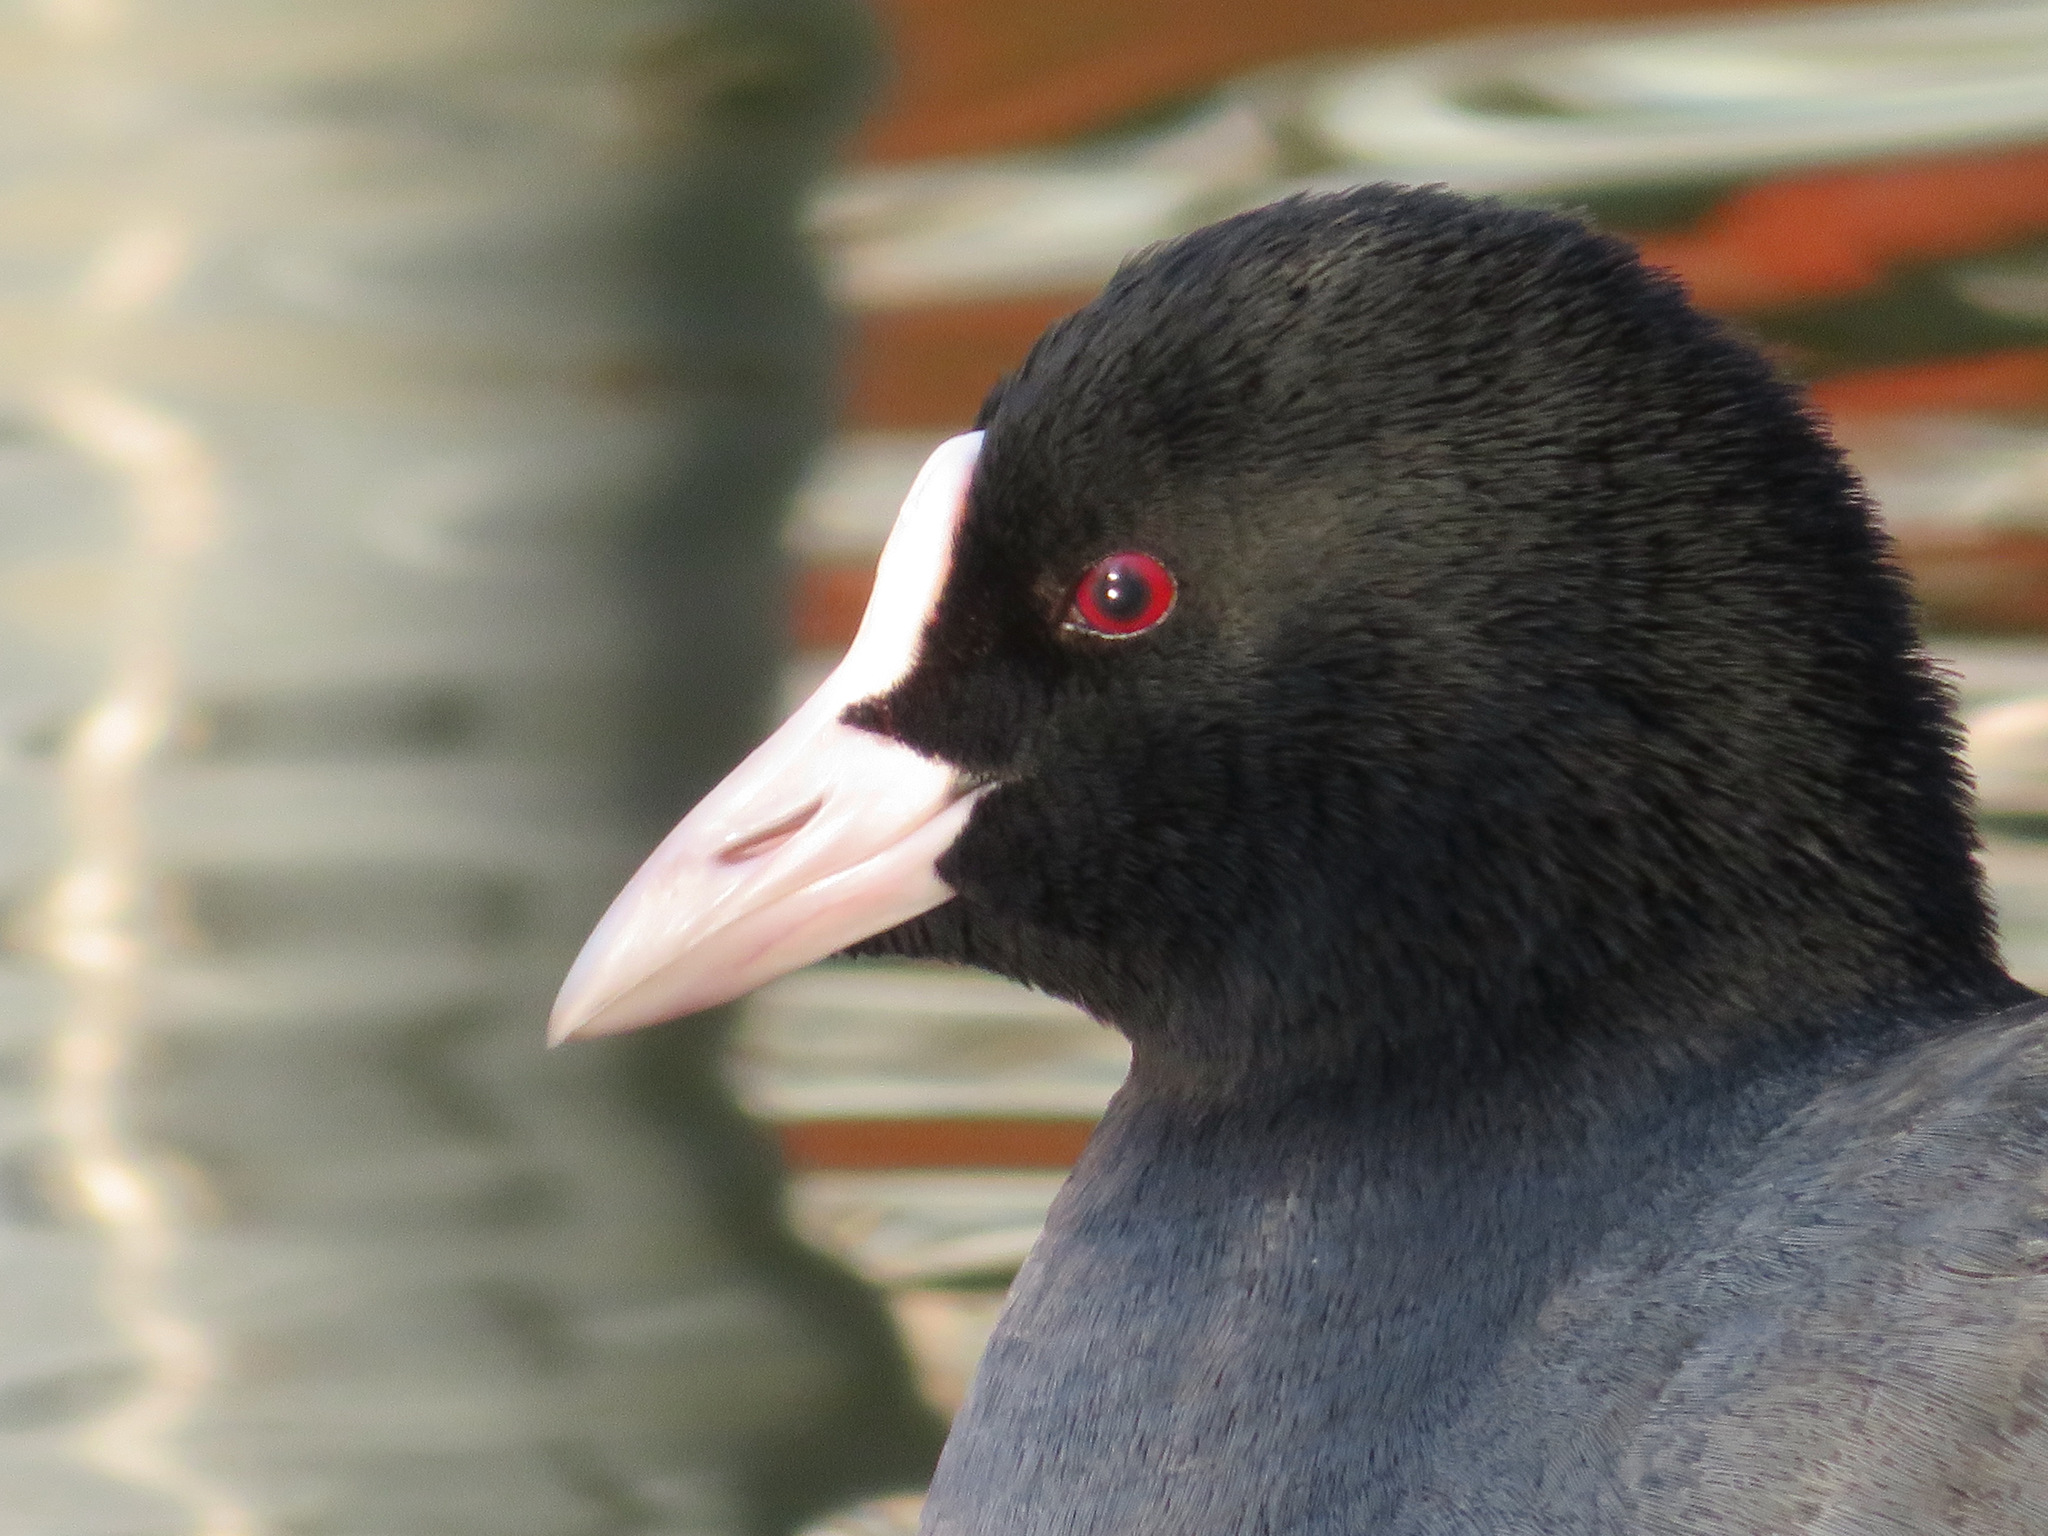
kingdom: Animalia
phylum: Chordata
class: Aves
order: Gruiformes
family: Rallidae
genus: Fulica
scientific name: Fulica atra
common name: Eurasian coot
